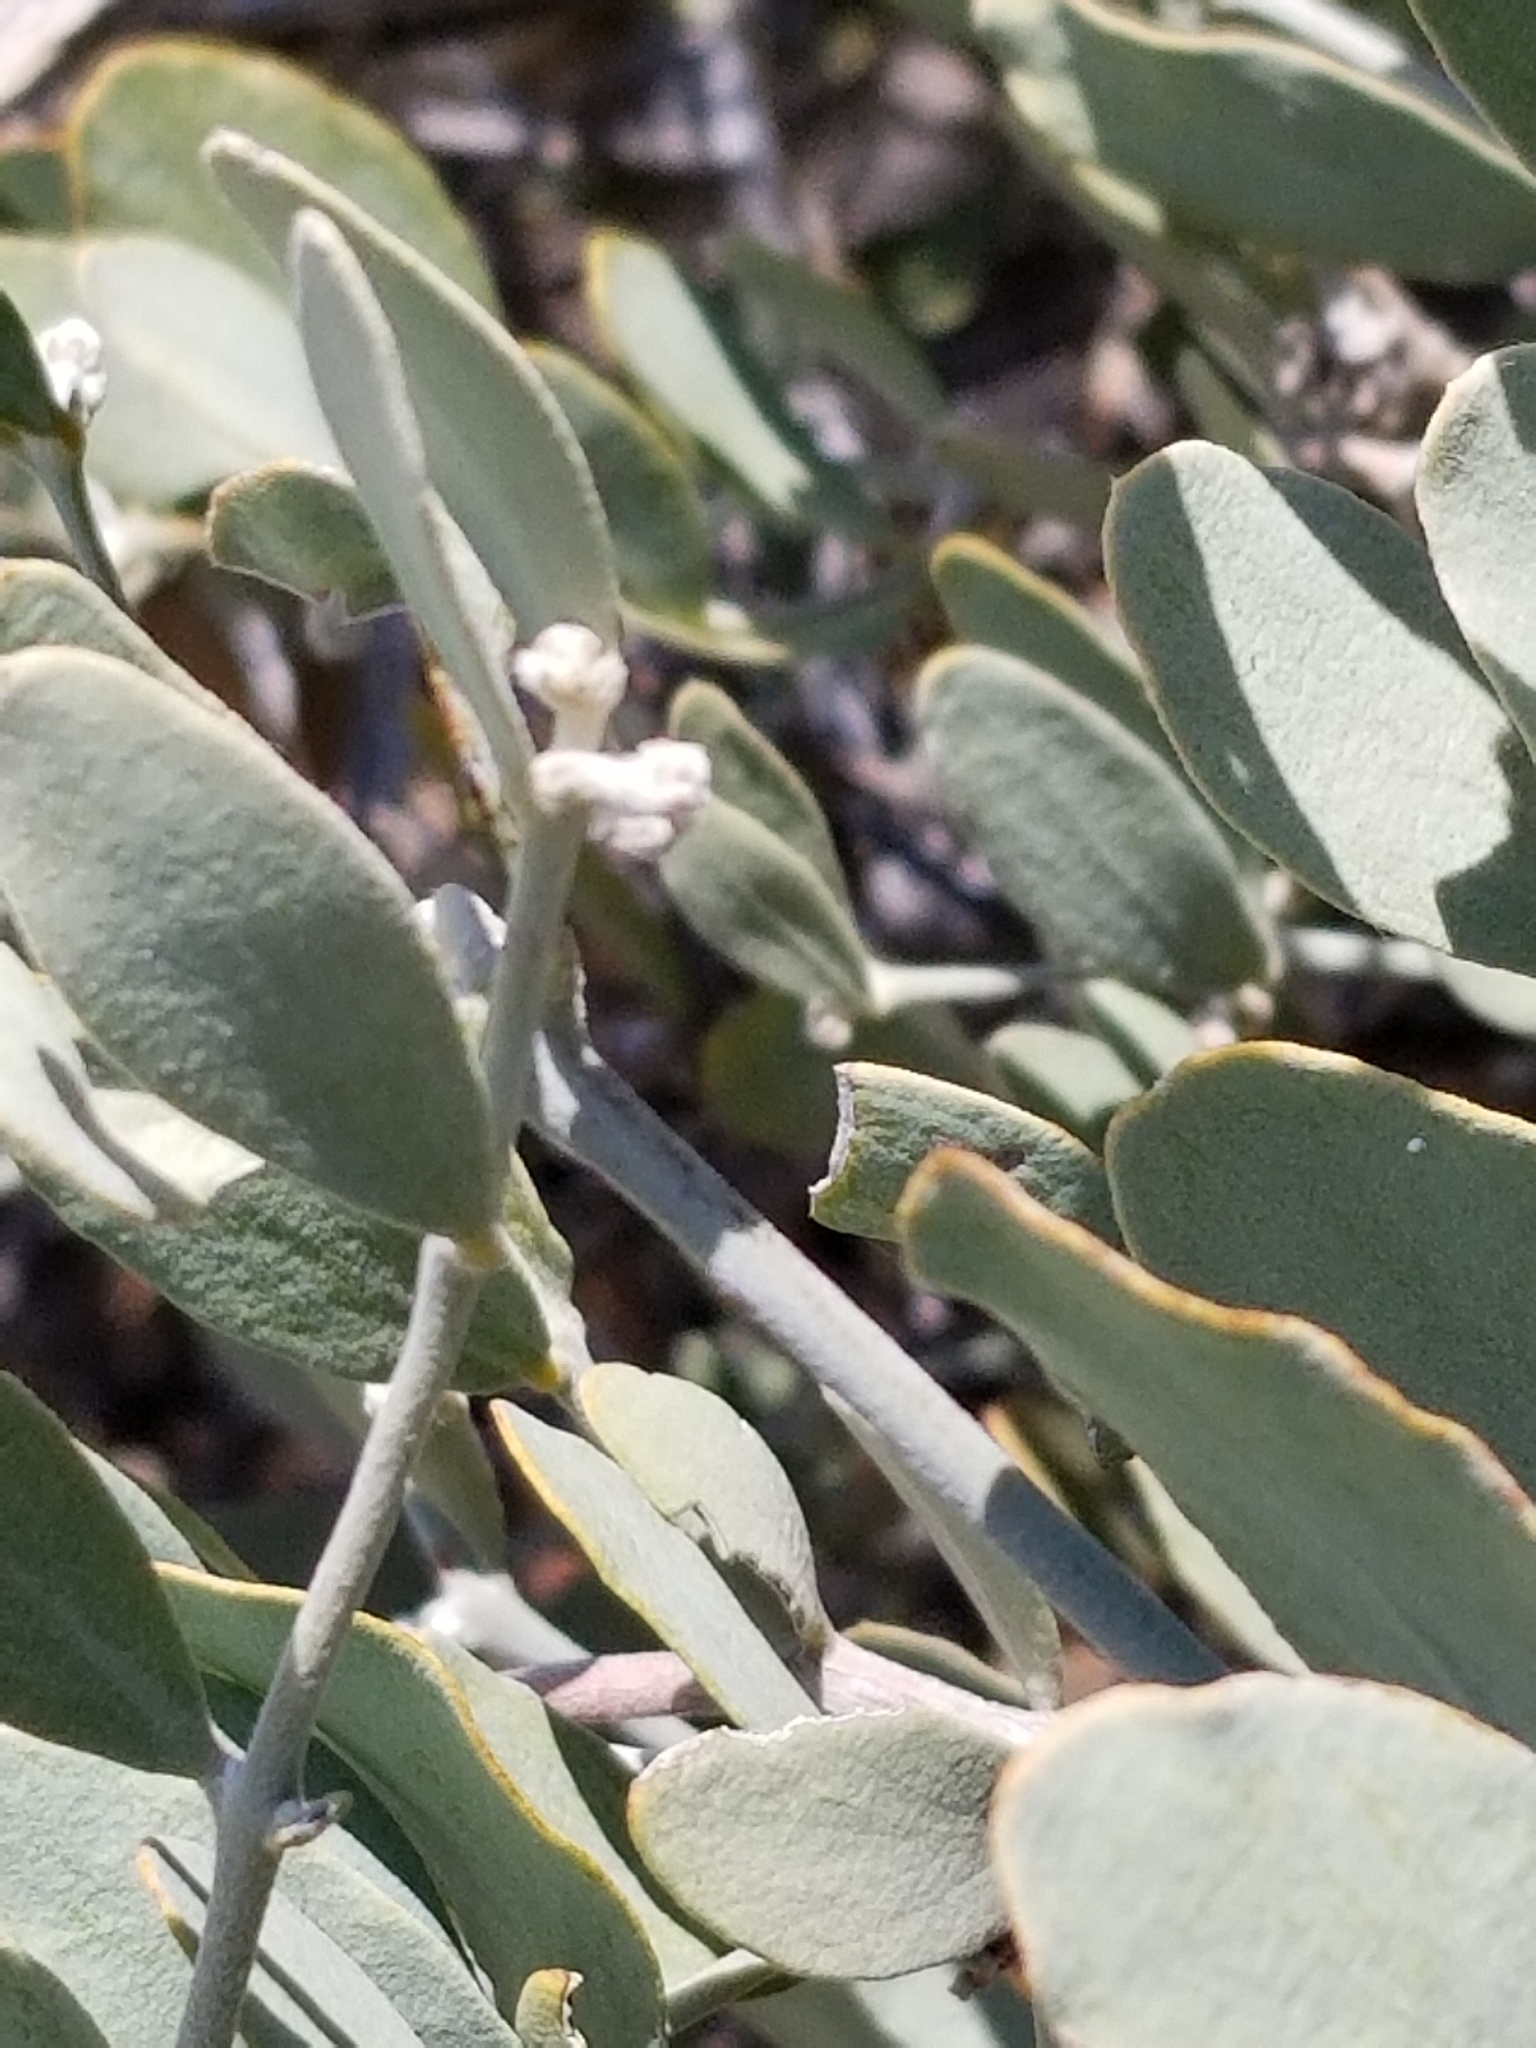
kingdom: Plantae
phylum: Tracheophyta
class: Magnoliopsida
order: Caryophyllales
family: Simmondsiaceae
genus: Simmondsia
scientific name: Simmondsia chinensis
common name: Jojoba
